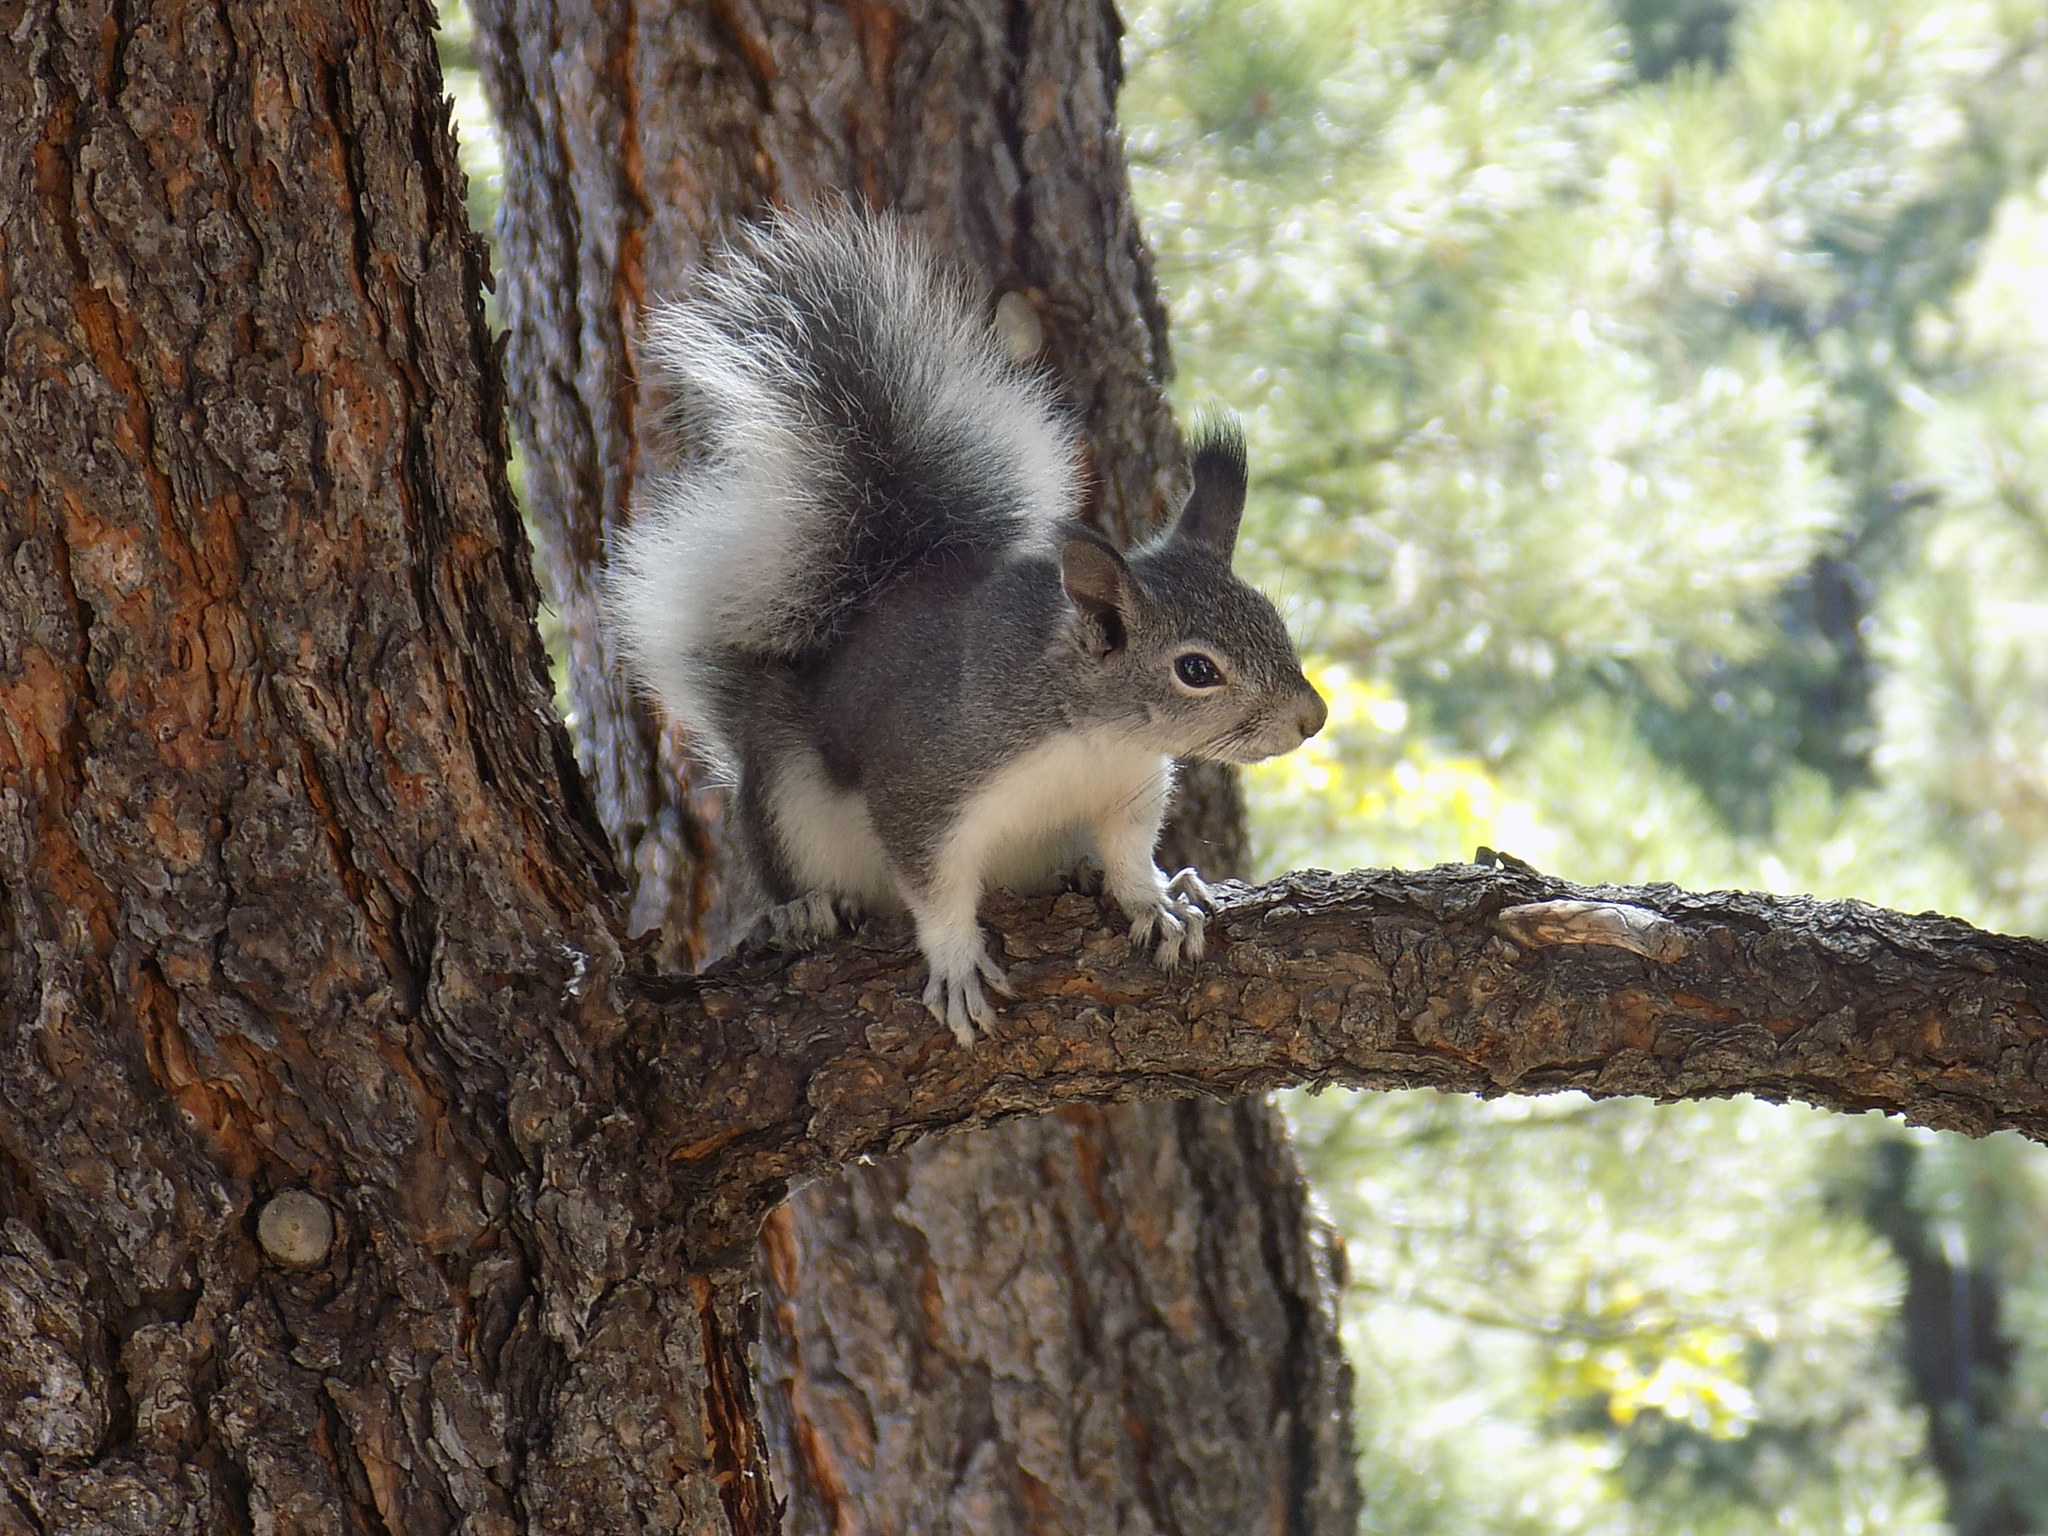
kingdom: Animalia
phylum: Chordata
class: Mammalia
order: Rodentia
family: Sciuridae
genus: Sciurus
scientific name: Sciurus aberti
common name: Abert's squirrel
